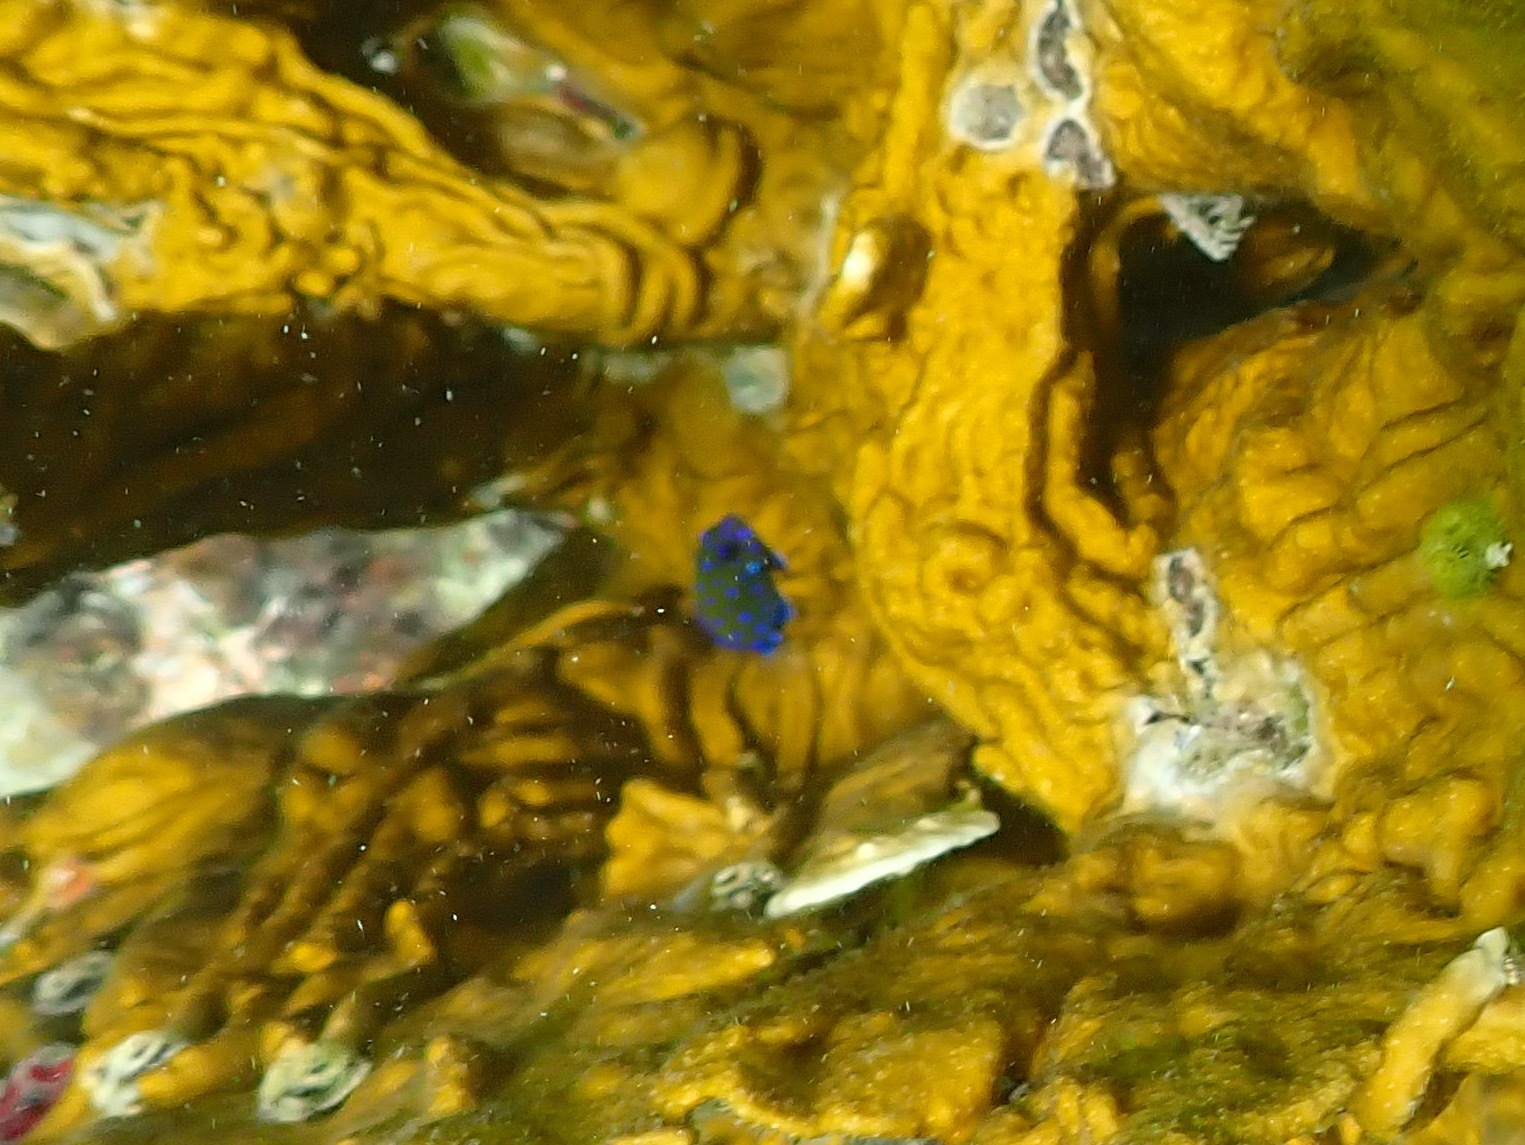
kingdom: Animalia
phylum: Chordata
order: Perciformes
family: Pomacentridae
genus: Microspathodon
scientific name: Microspathodon chrysurus
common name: Yellowtail damselfish
